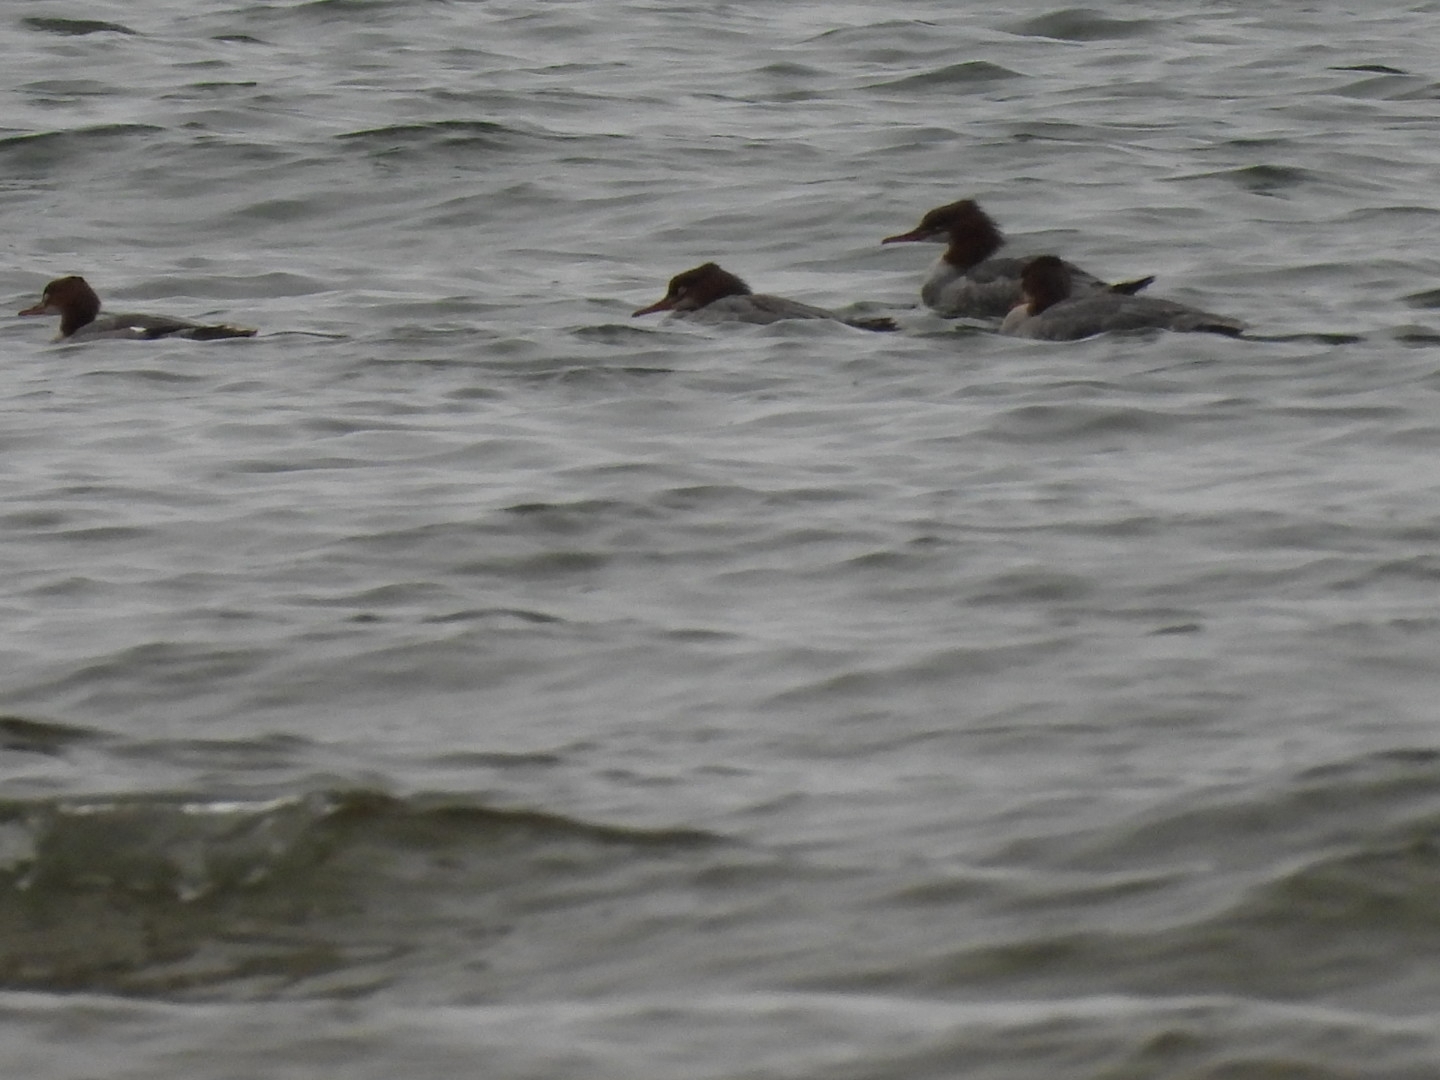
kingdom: Animalia
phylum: Chordata
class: Aves
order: Anseriformes
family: Anatidae
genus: Mergus
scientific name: Mergus merganser
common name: Common merganser
